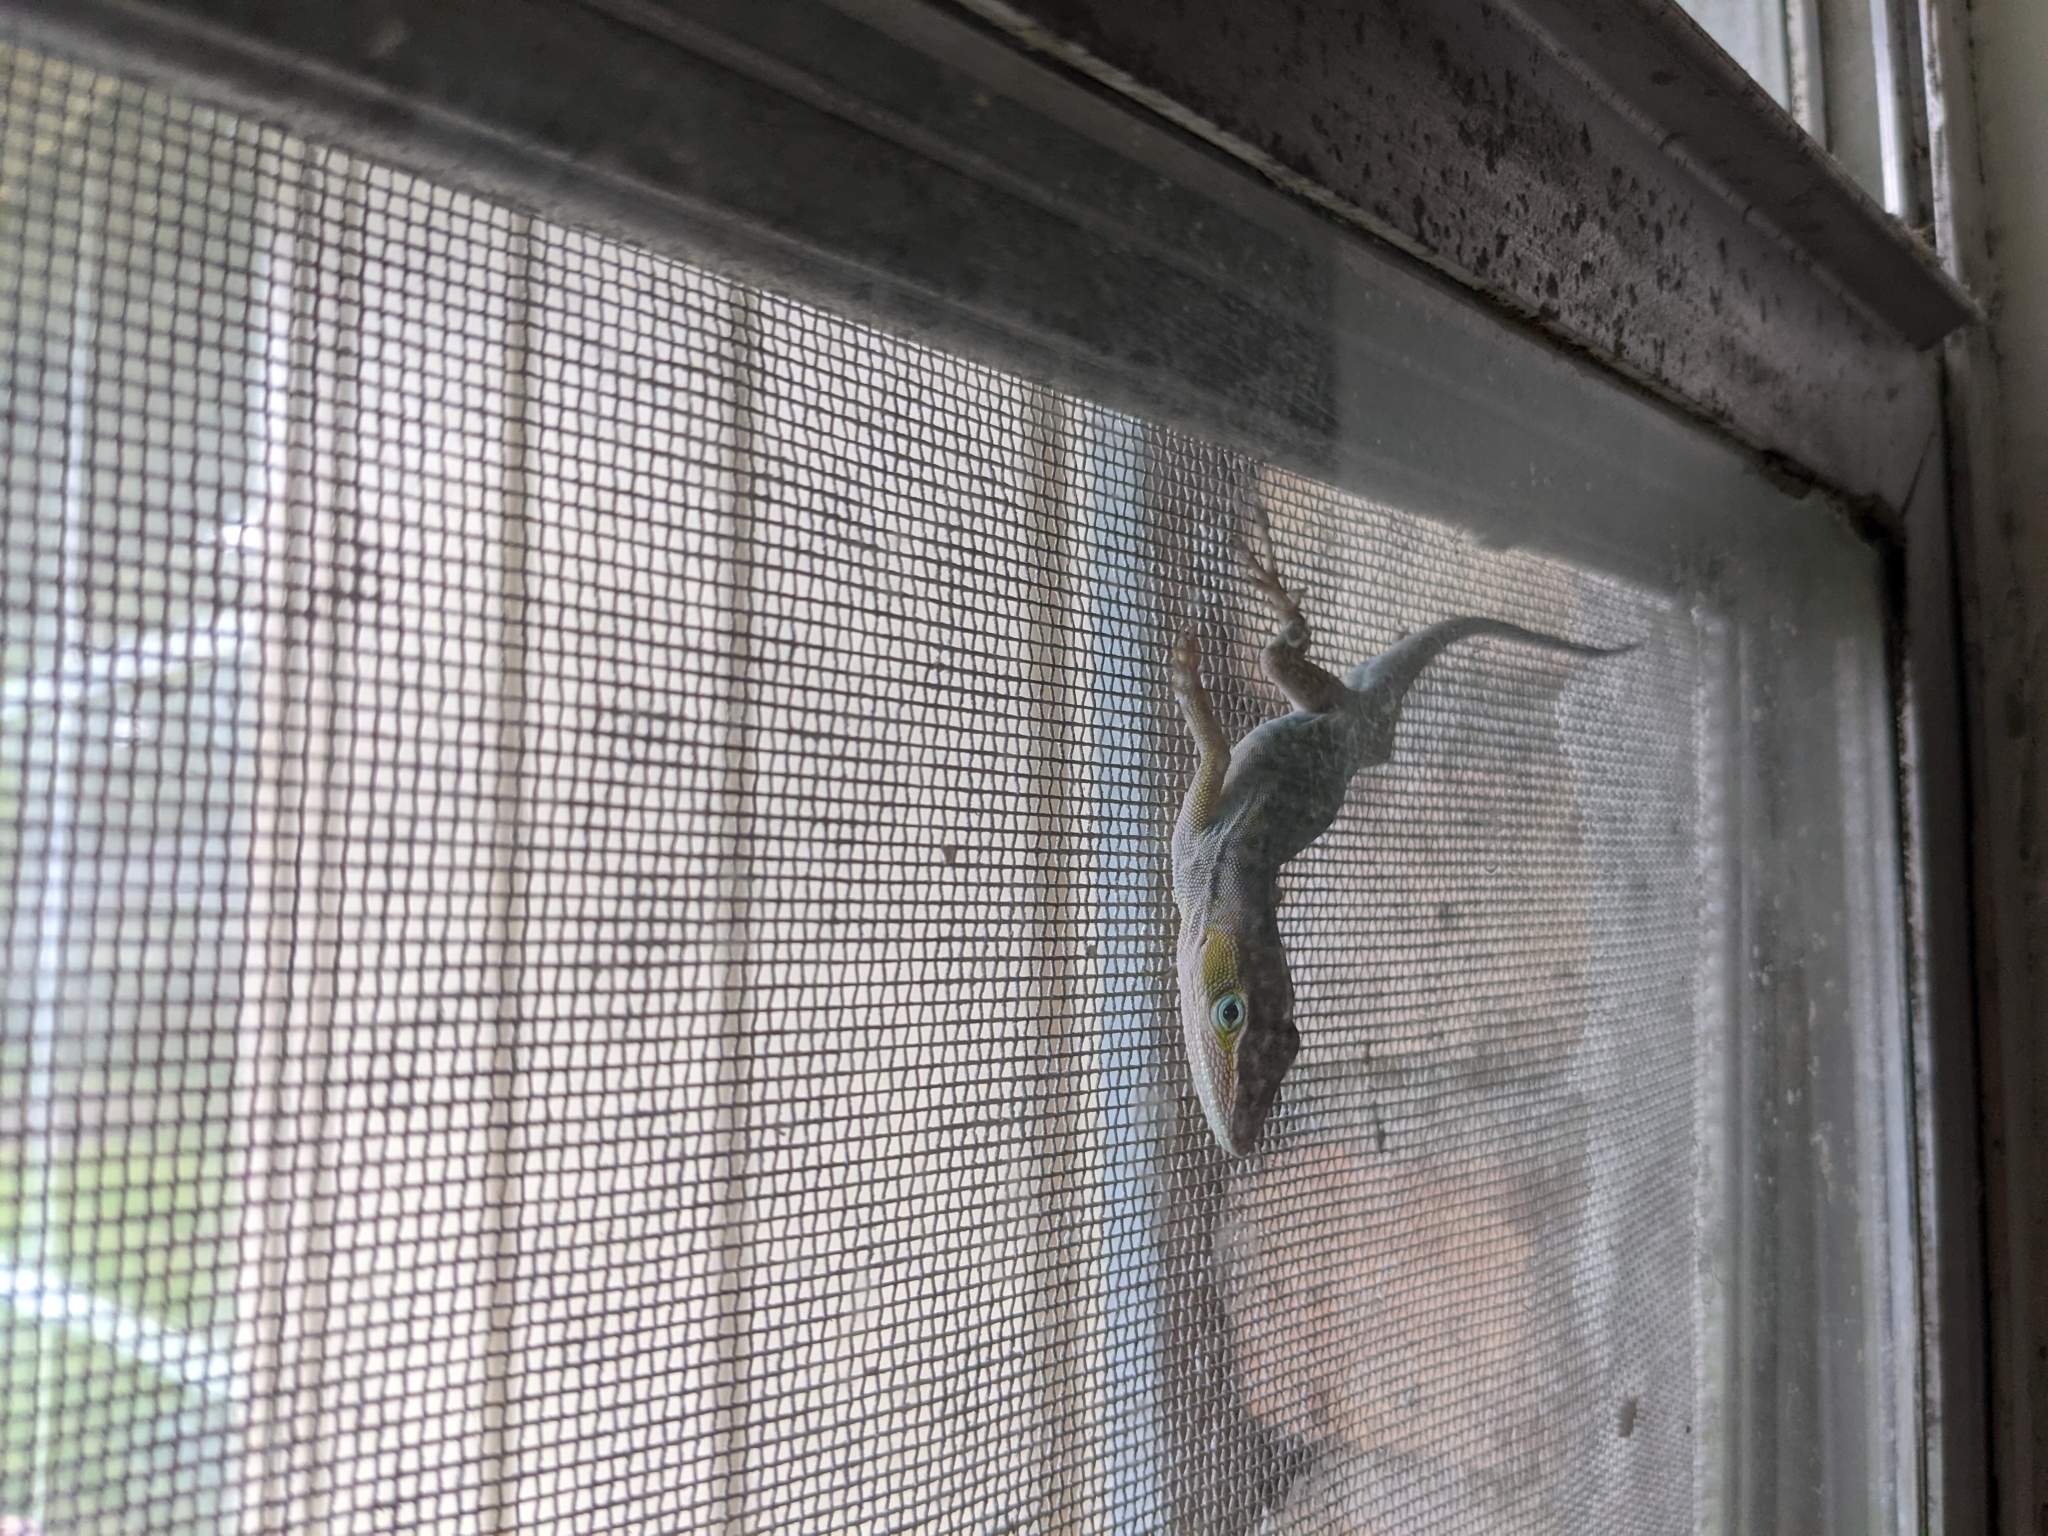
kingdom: Animalia
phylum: Chordata
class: Squamata
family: Dactyloidae
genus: Anolis
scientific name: Anolis carolinensis
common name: Green anole
